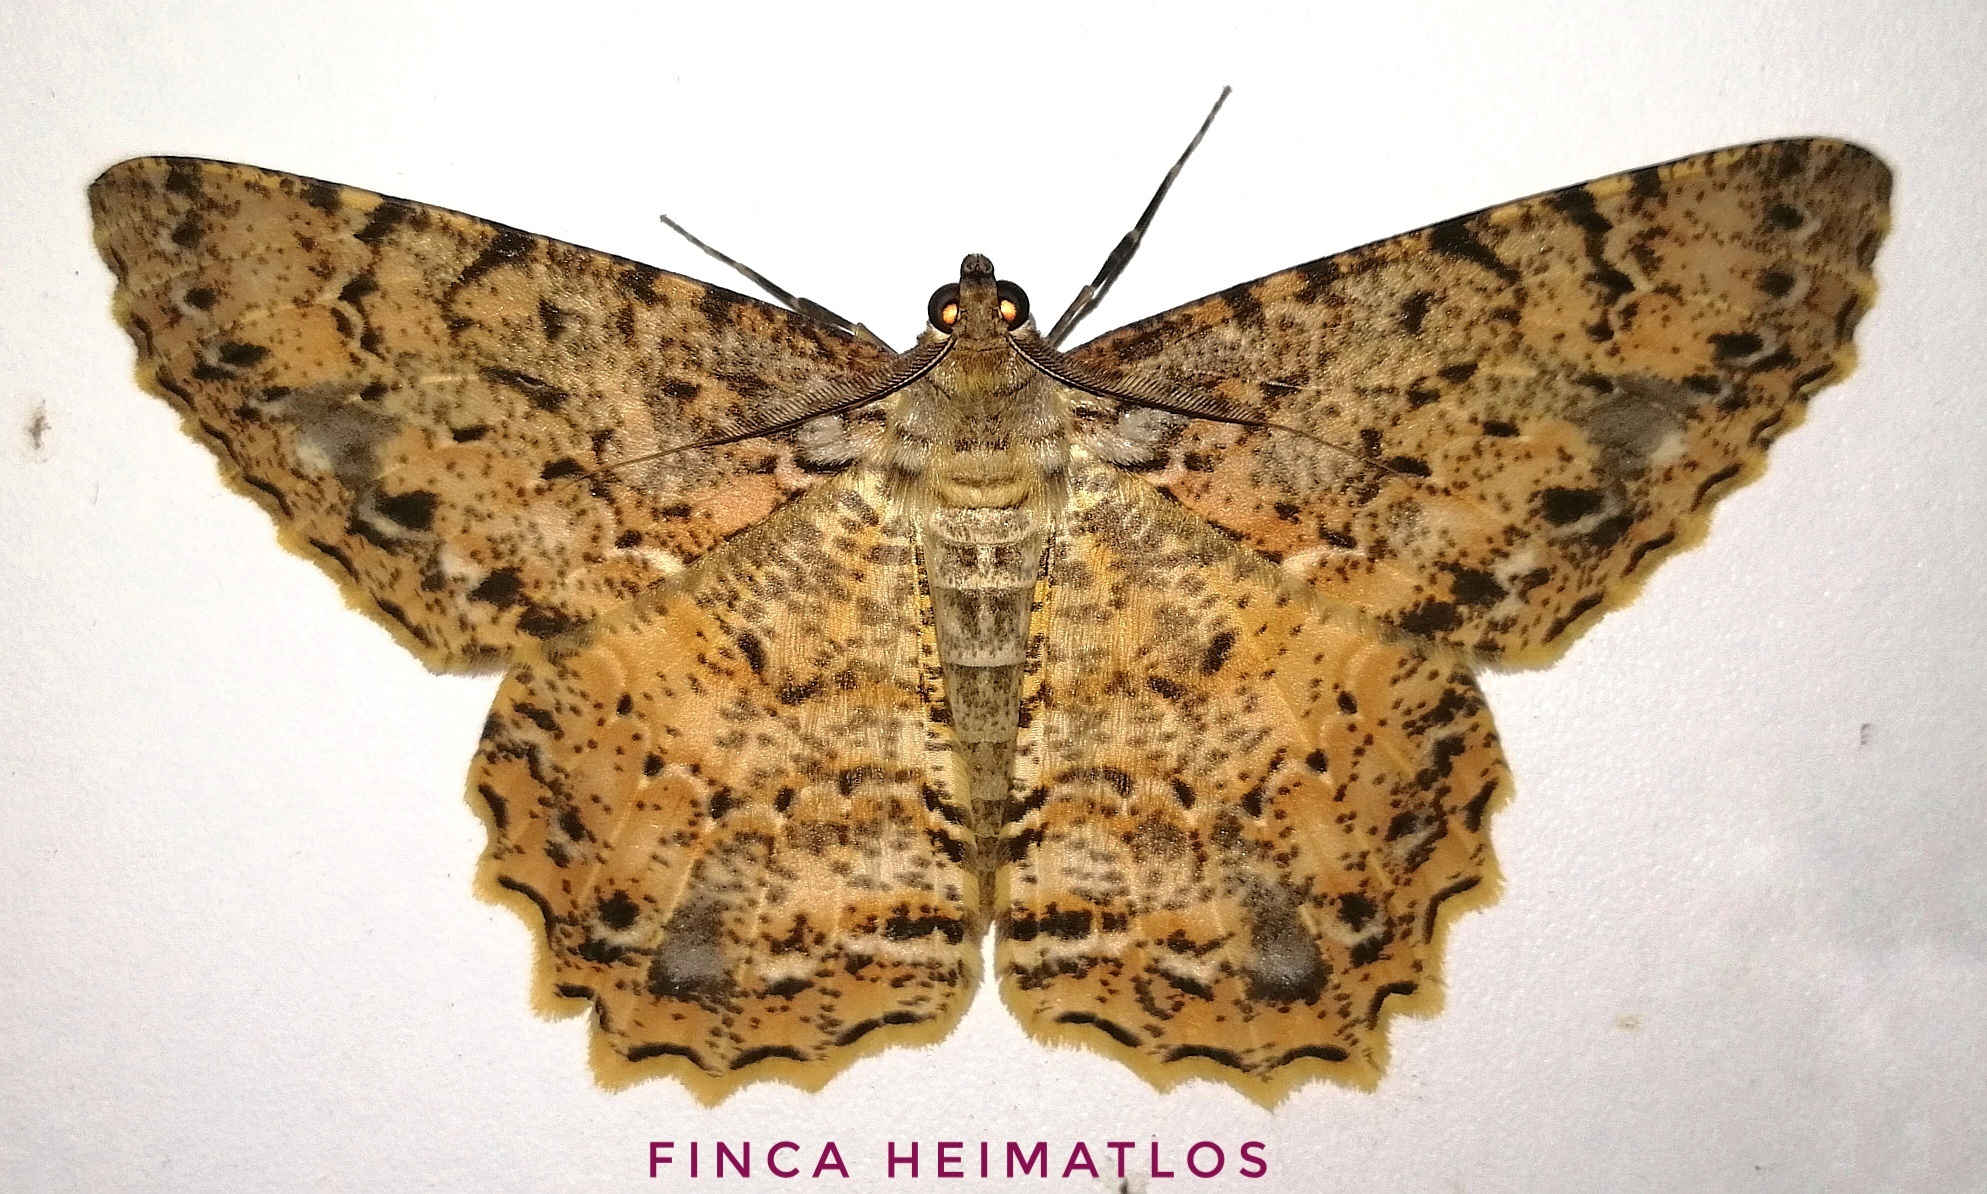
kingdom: Animalia
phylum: Arthropoda
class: Insecta
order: Lepidoptera
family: Geometridae
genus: Epimecis
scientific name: Epimecis subroraria
